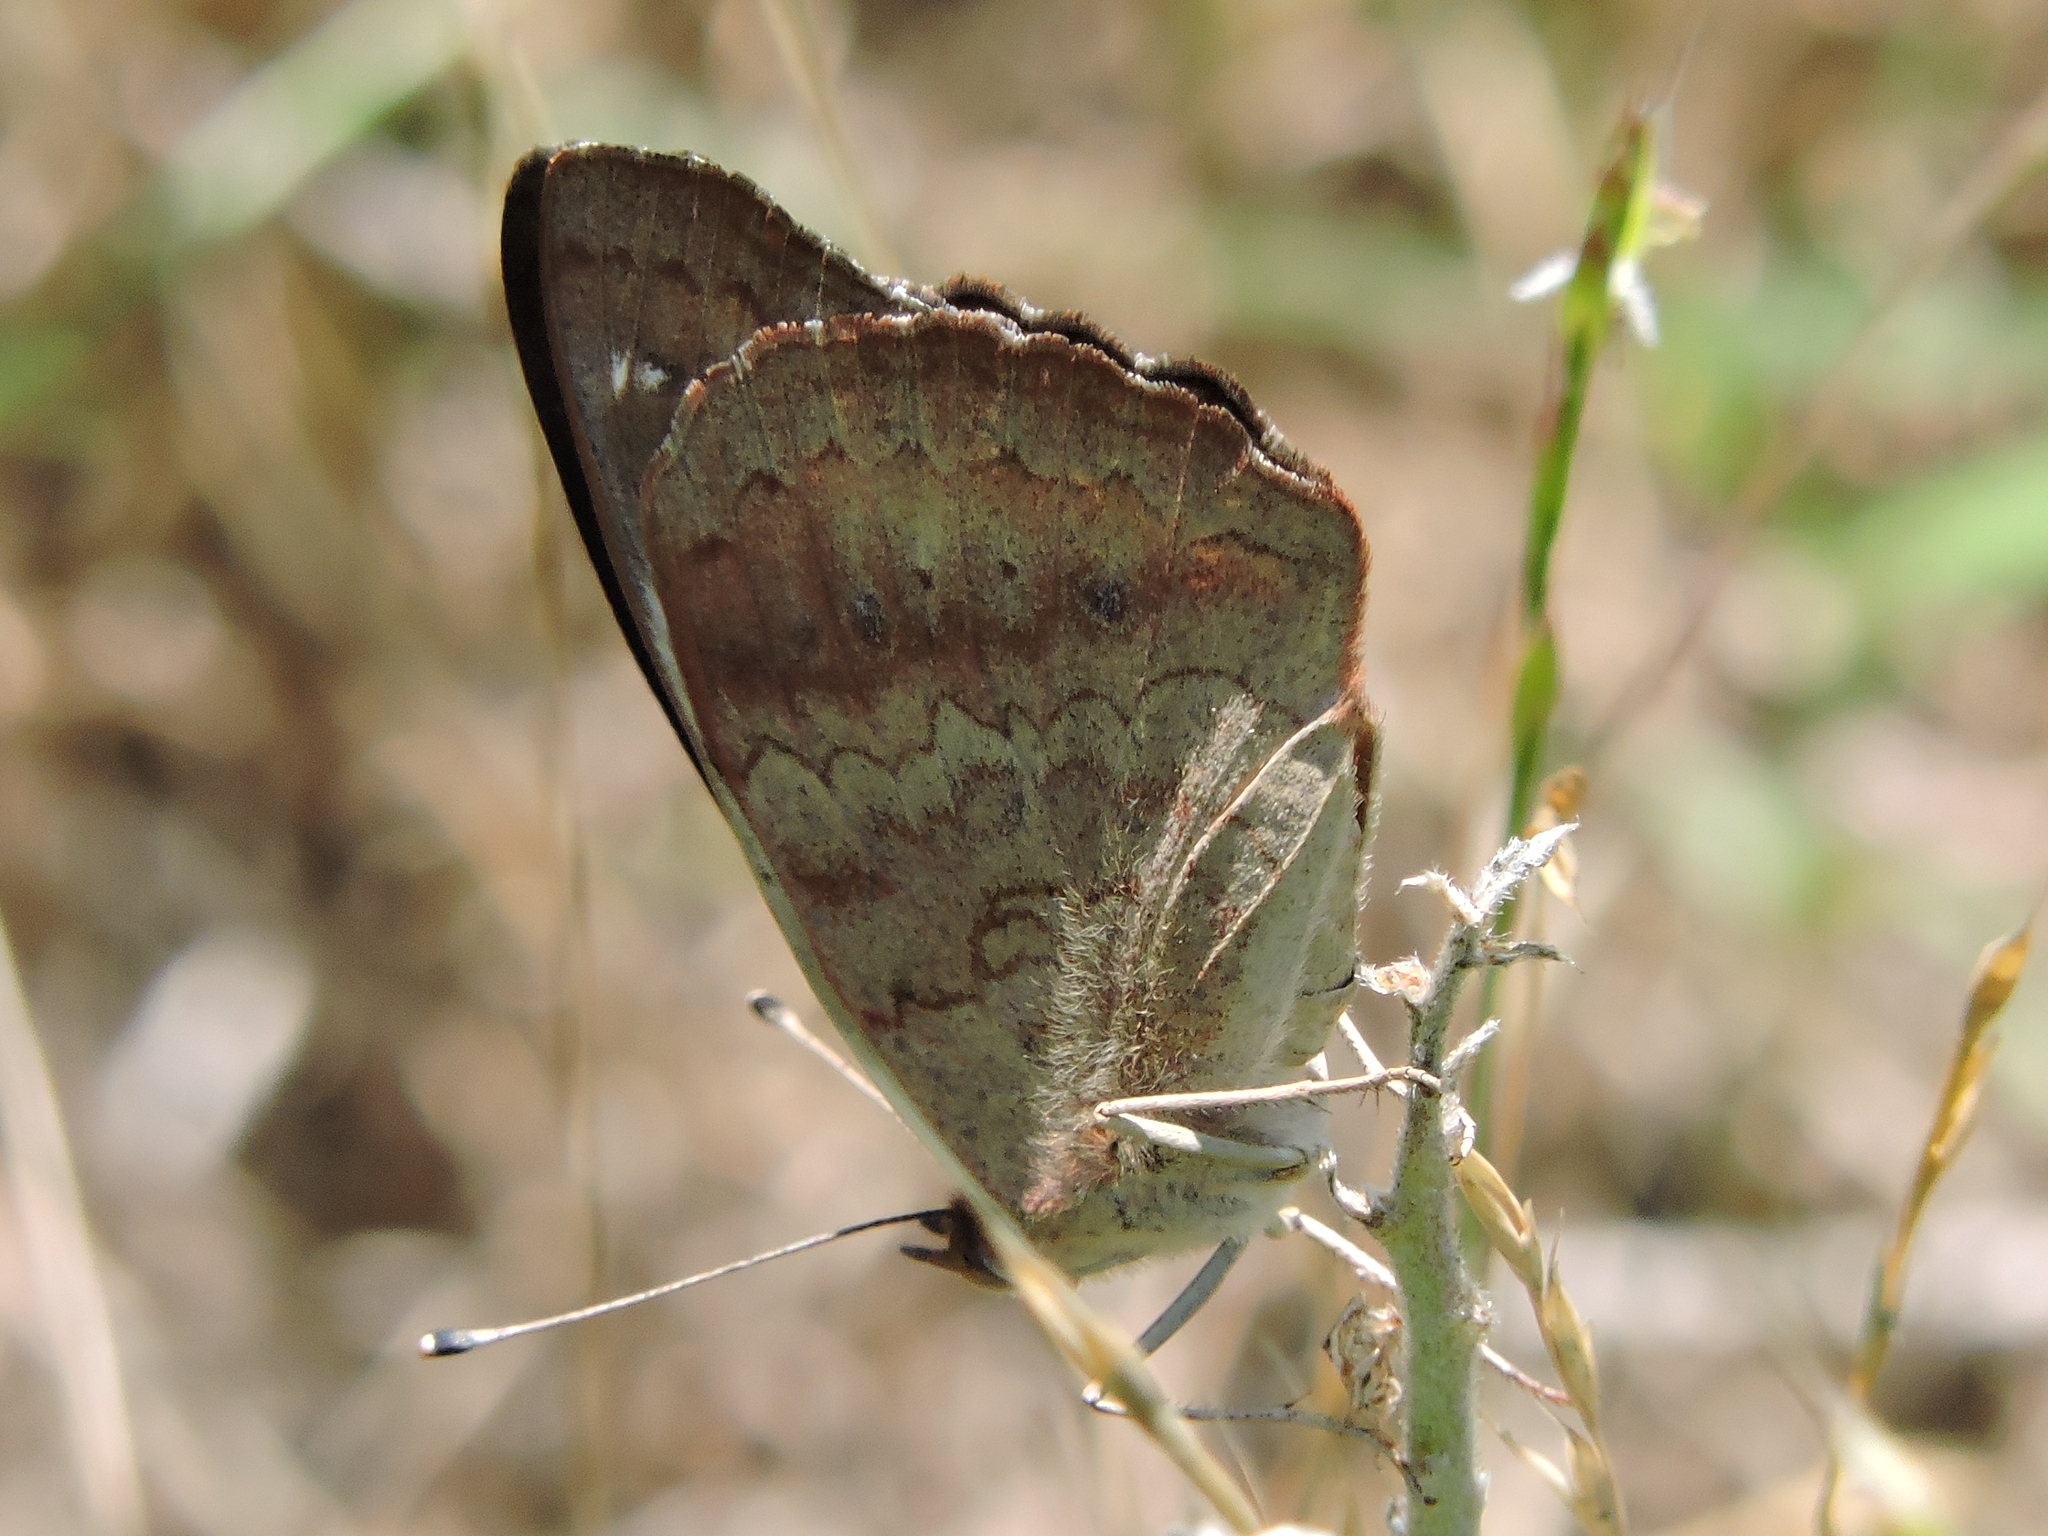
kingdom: Animalia
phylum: Arthropoda
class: Insecta
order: Lepidoptera
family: Nymphalidae
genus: Junonia
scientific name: Junonia coenia
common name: Common buckeye
